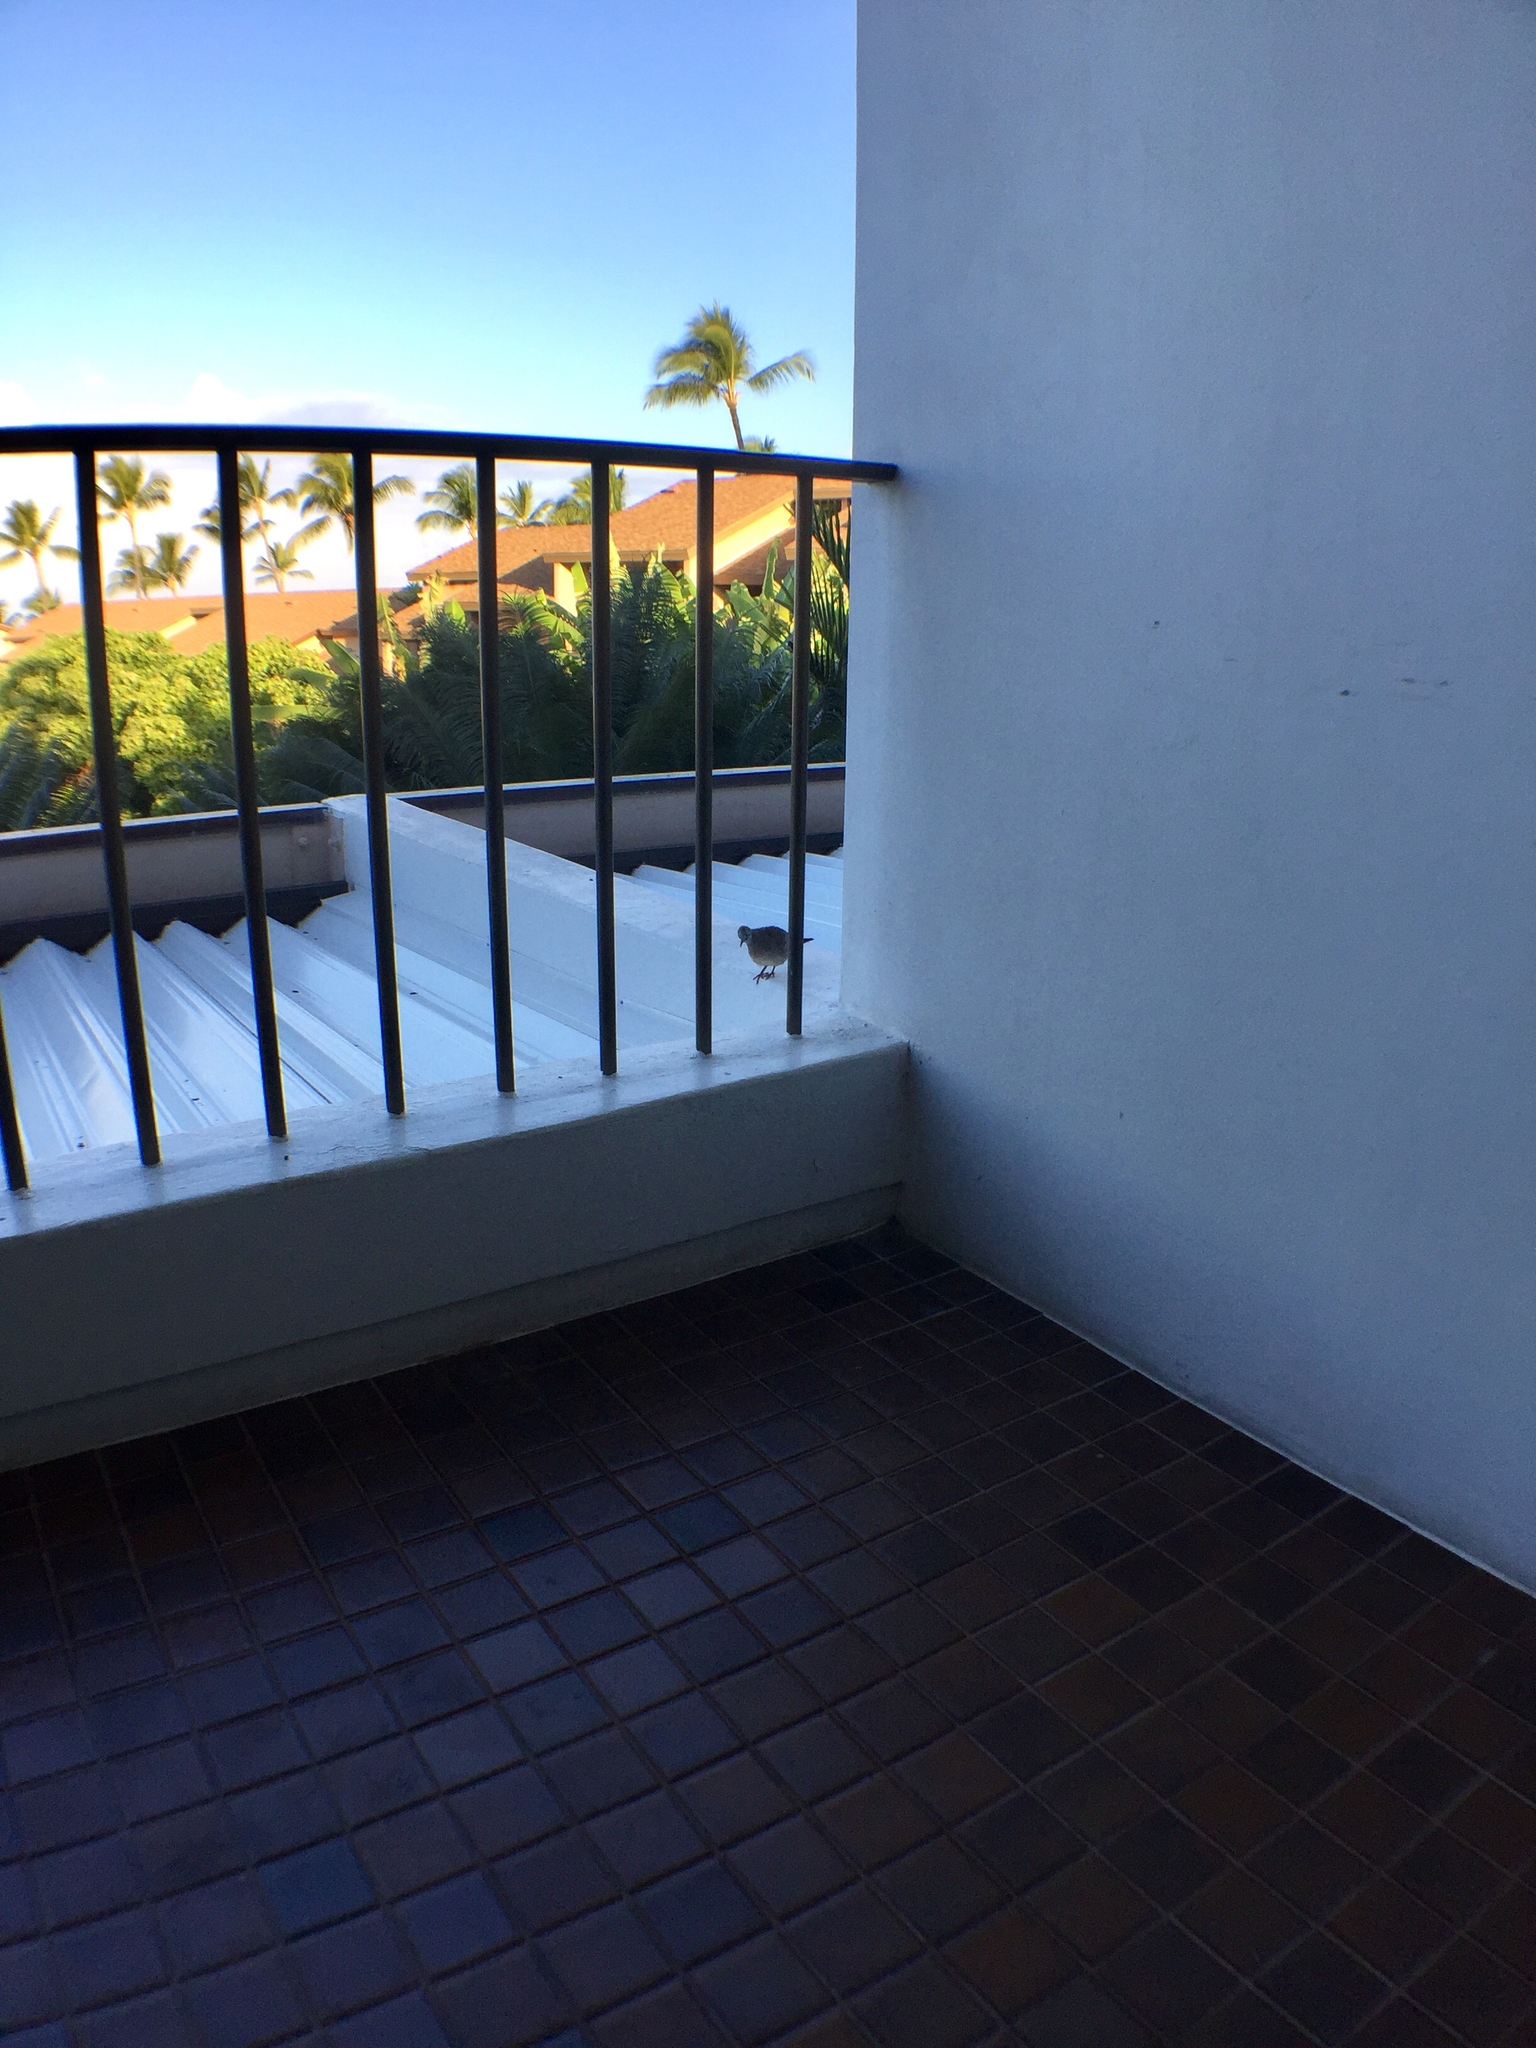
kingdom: Animalia
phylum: Chordata
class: Aves
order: Columbiformes
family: Columbidae
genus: Geopelia
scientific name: Geopelia striata
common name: Zebra dove
